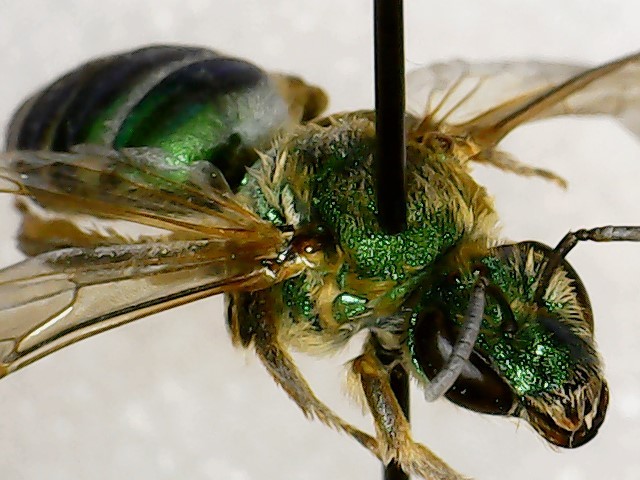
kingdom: Animalia
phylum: Arthropoda
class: Insecta
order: Hymenoptera
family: Halictidae
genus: Agapostemon
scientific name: Agapostemon splendens
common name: Brown-winged striped sweat bee
